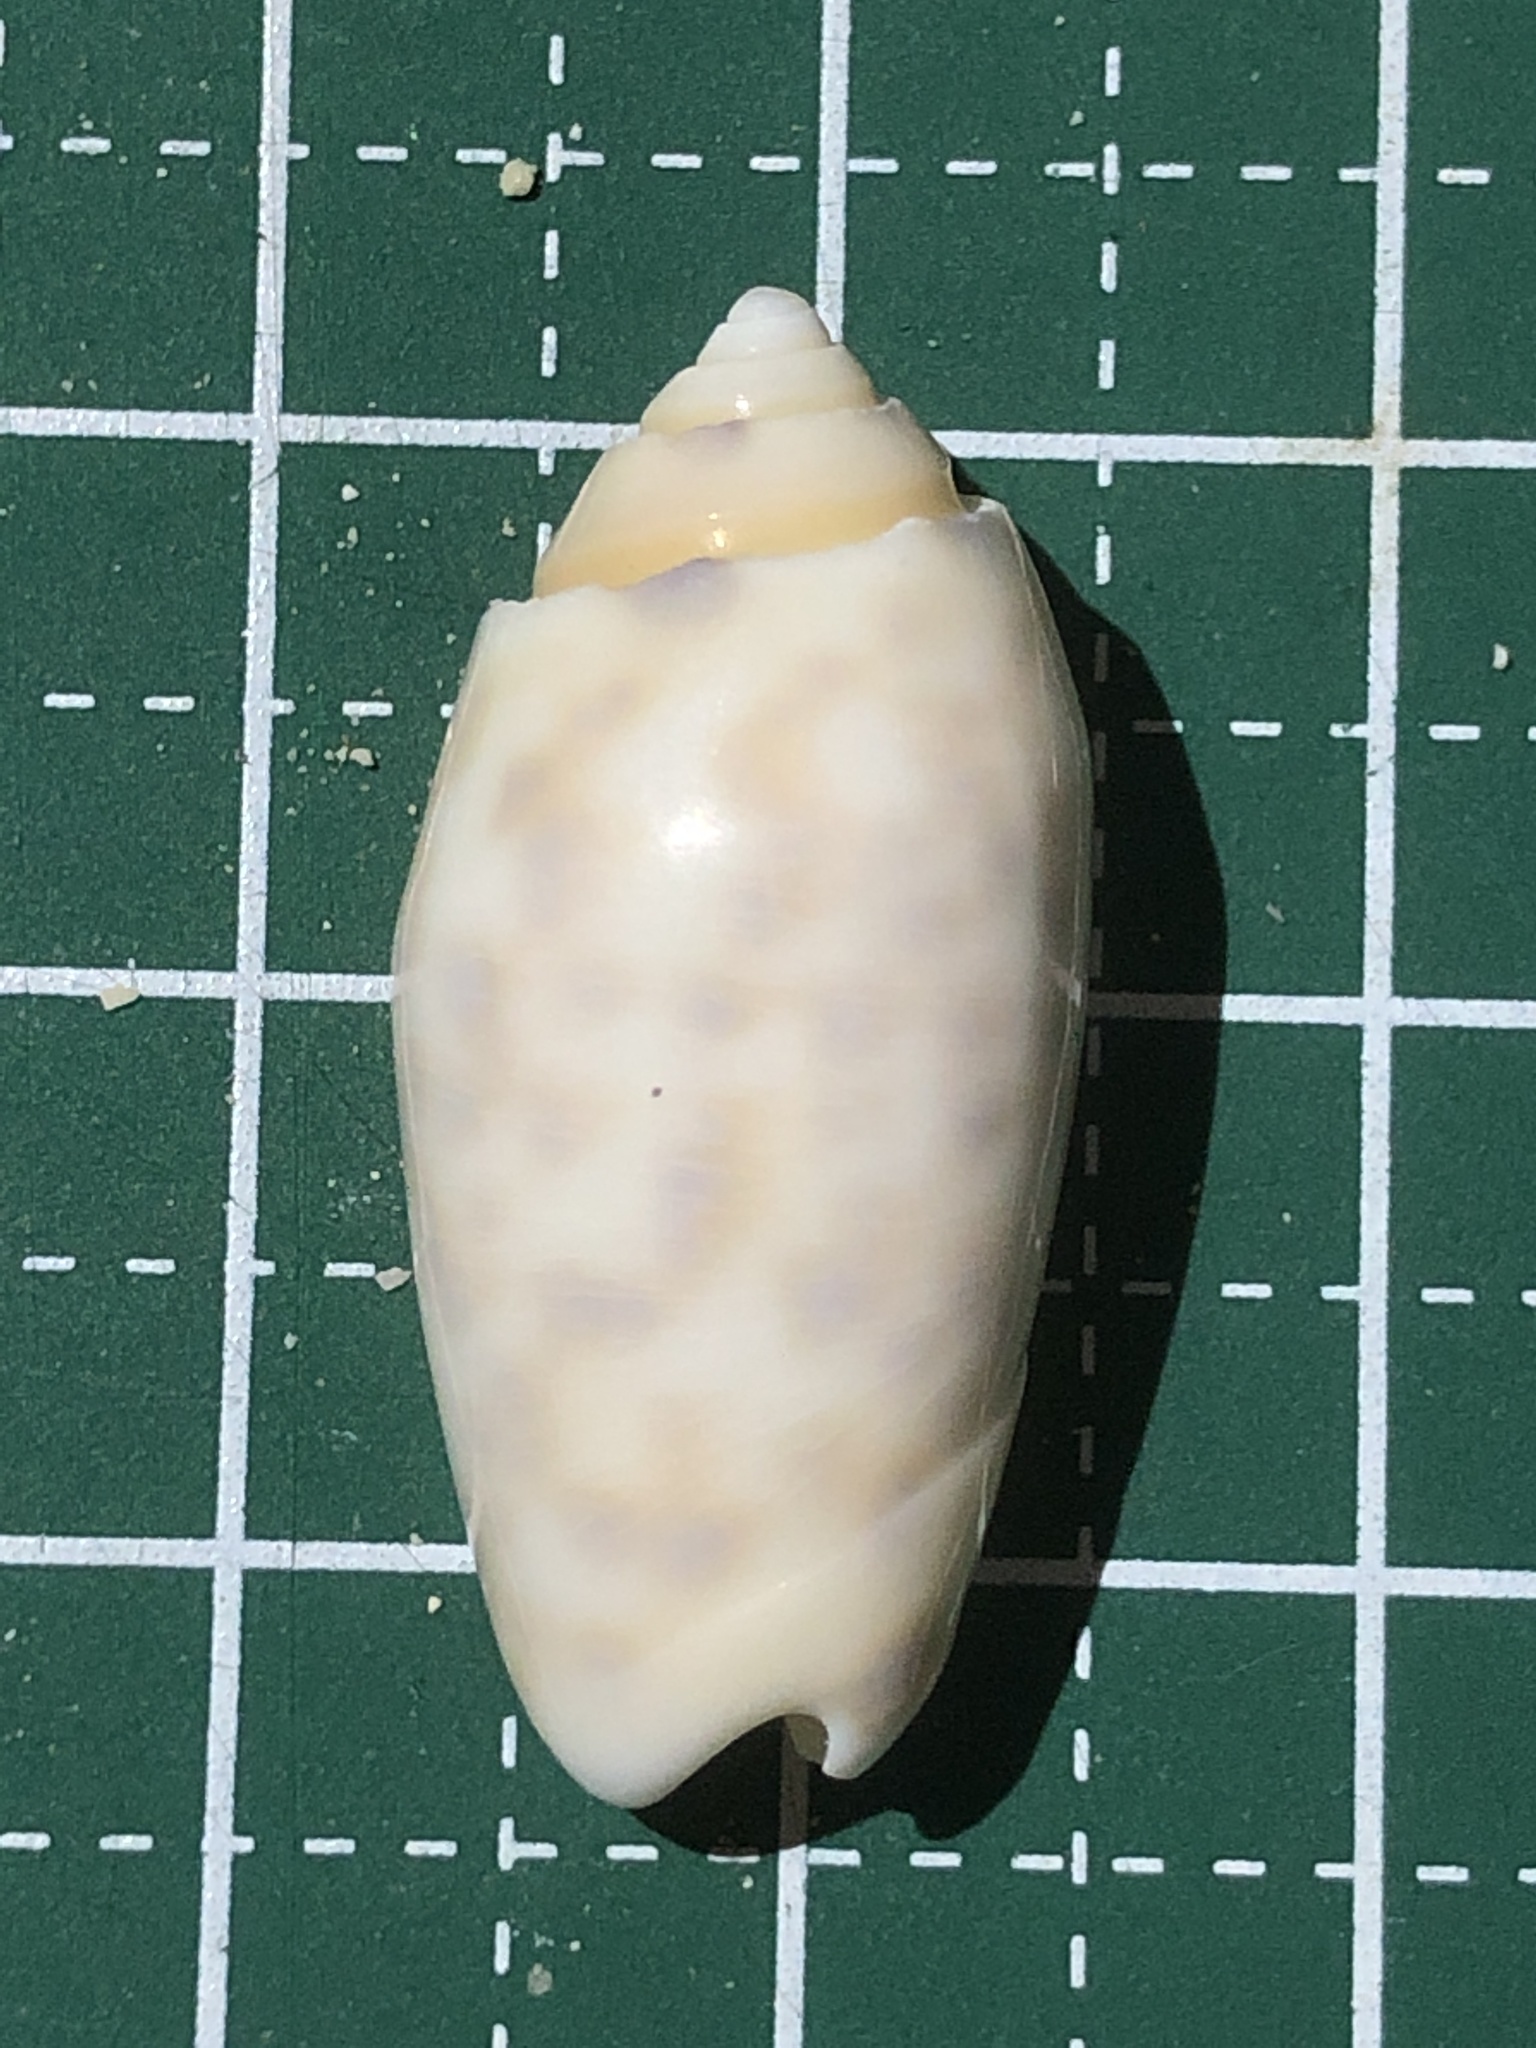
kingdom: Animalia
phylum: Mollusca
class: Gastropoda
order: Neogastropoda
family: Olividae
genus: Oliva
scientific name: Oliva amethystina
